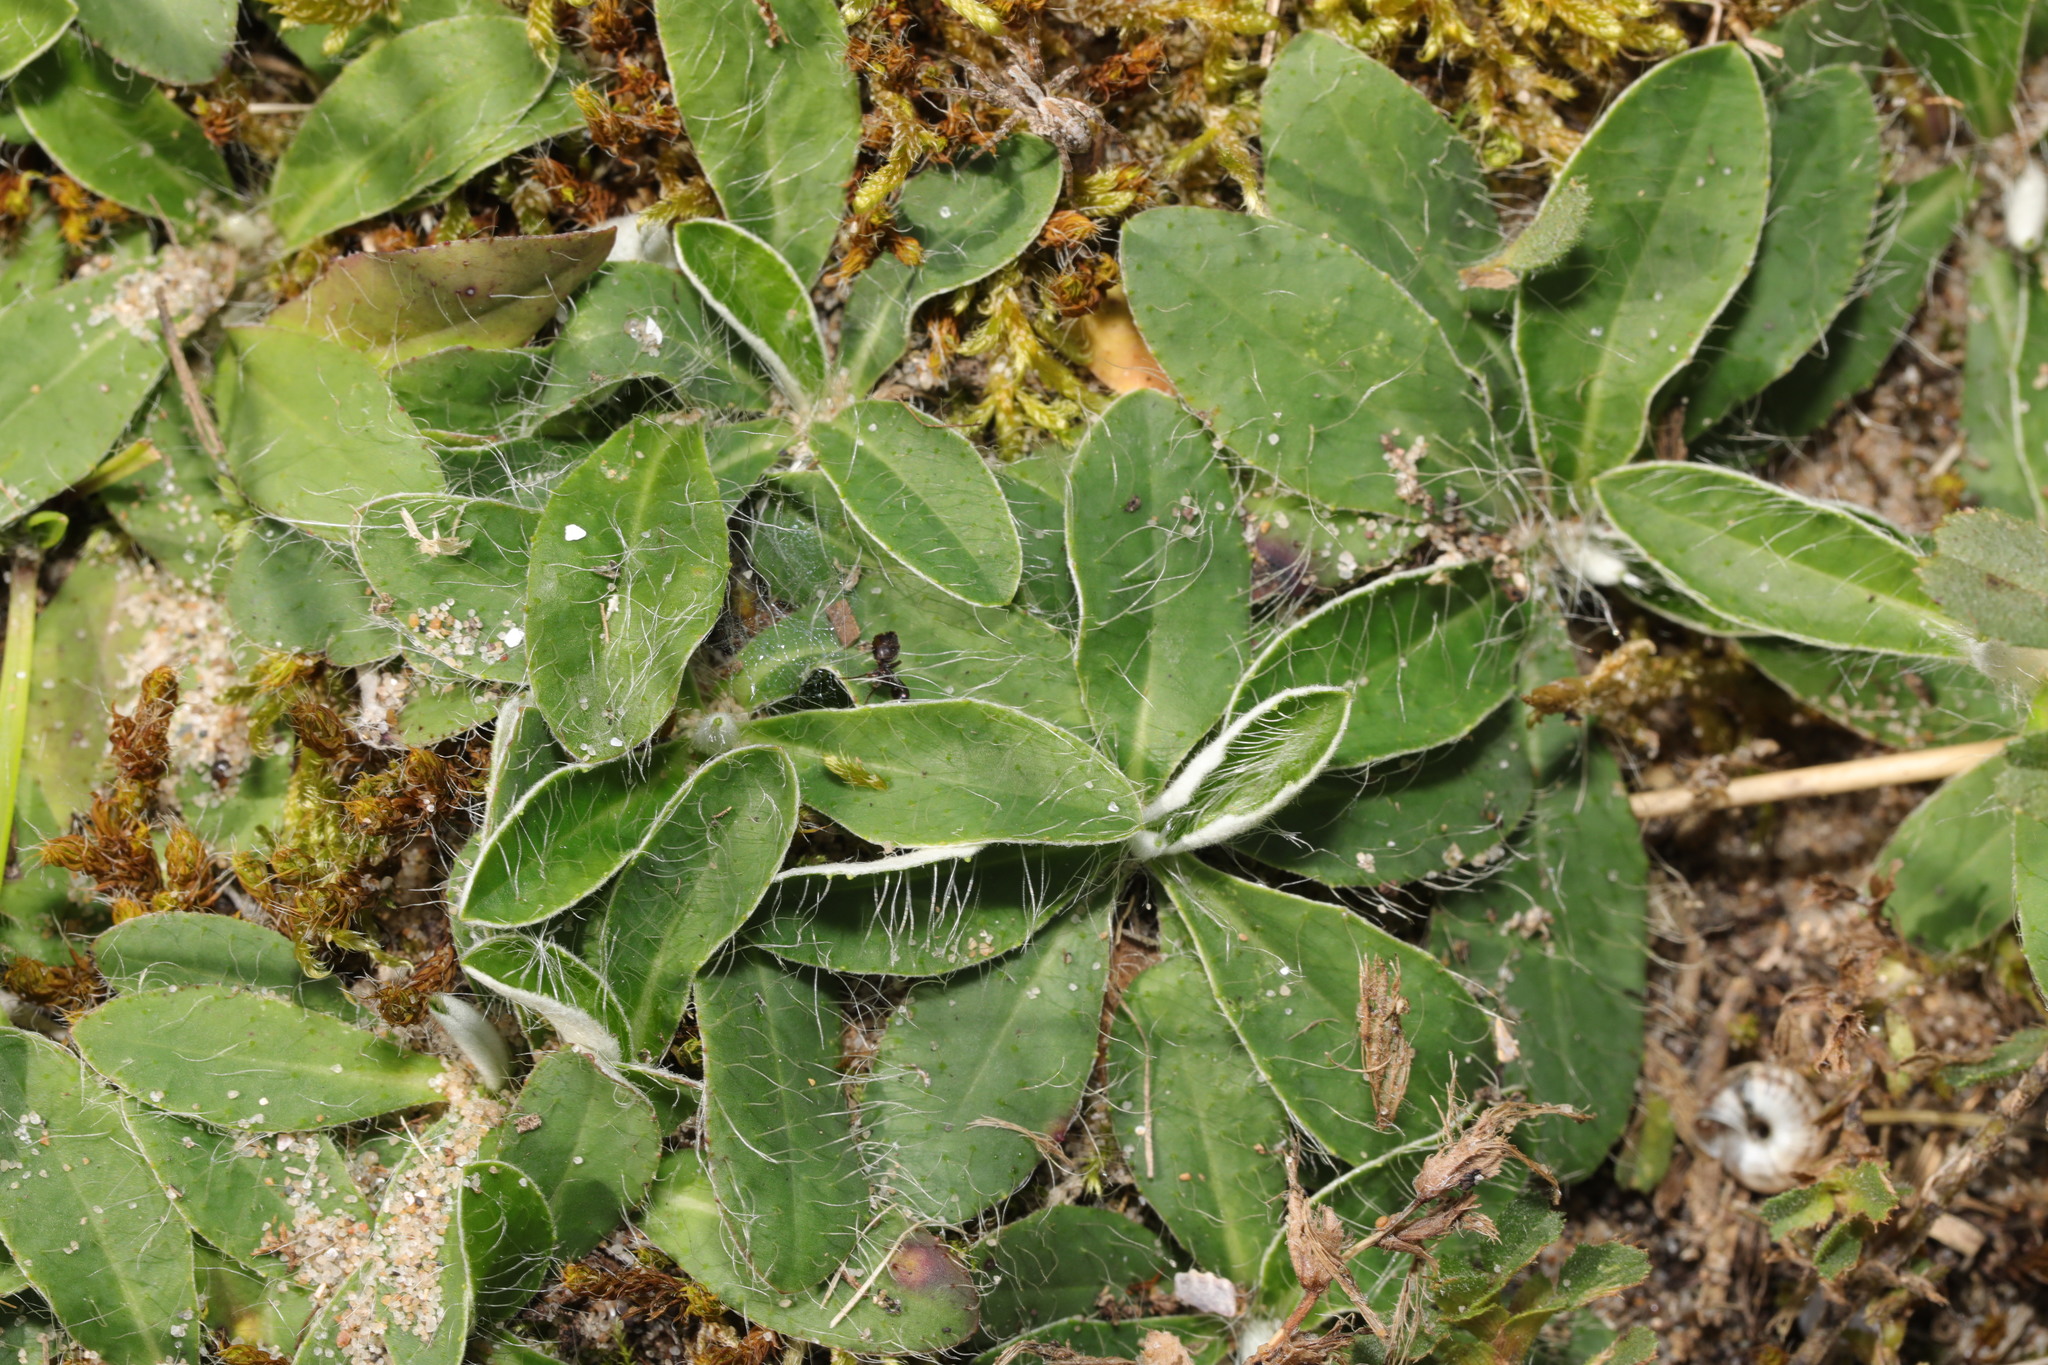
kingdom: Plantae
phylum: Tracheophyta
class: Magnoliopsida
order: Asterales
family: Asteraceae
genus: Pilosella
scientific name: Pilosella officinarum
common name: Mouse-ear hawkweed
